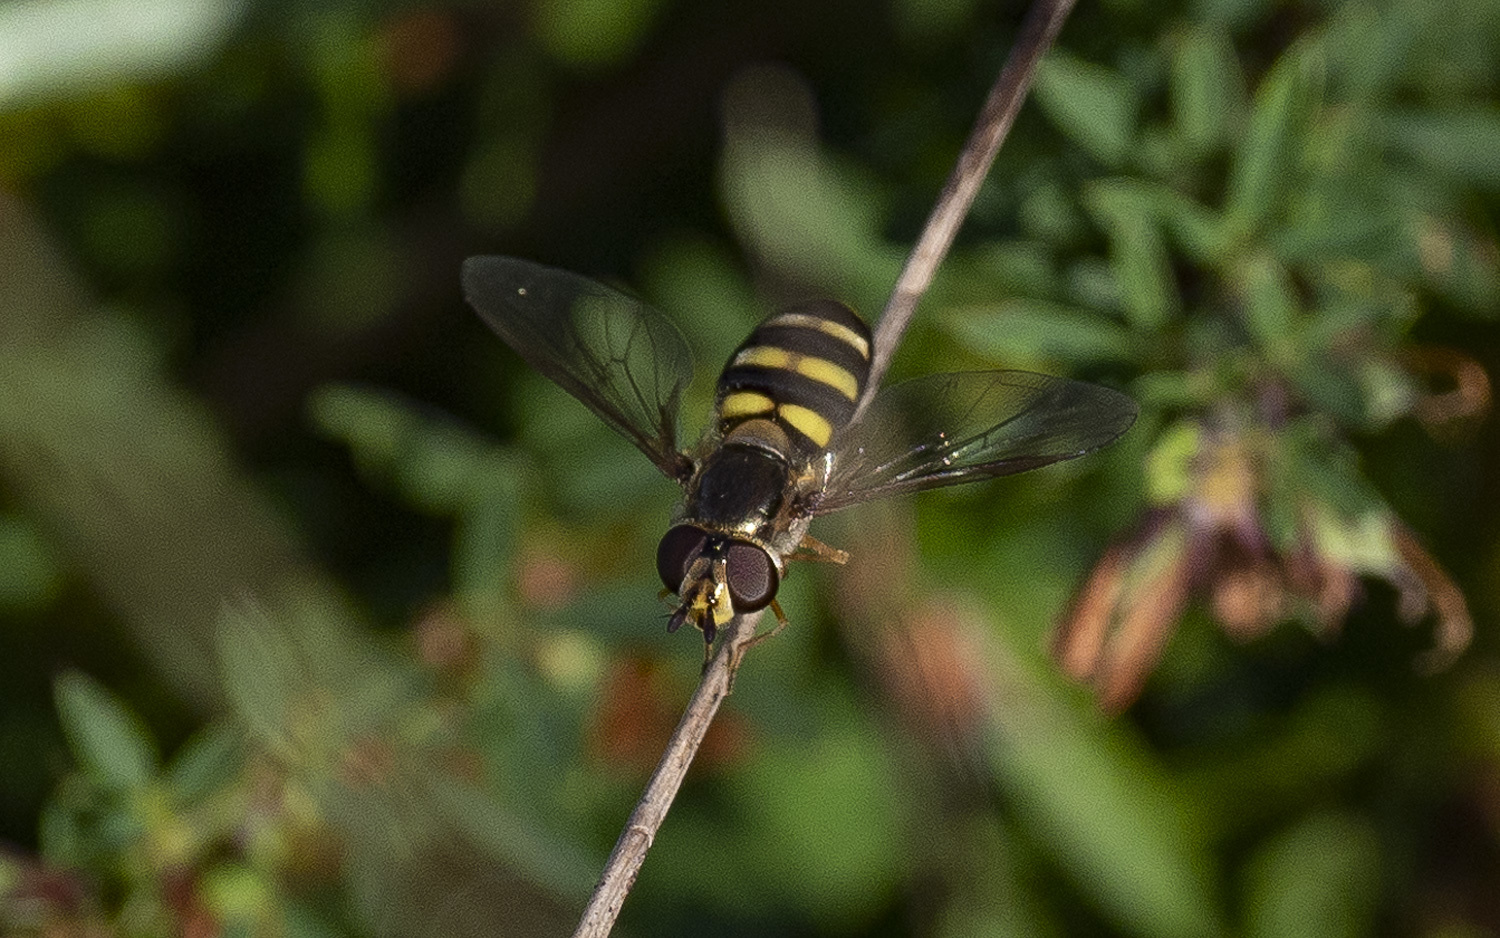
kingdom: Animalia
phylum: Arthropoda
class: Insecta
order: Diptera
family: Syrphidae
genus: Eupeodes
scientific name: Eupeodes
